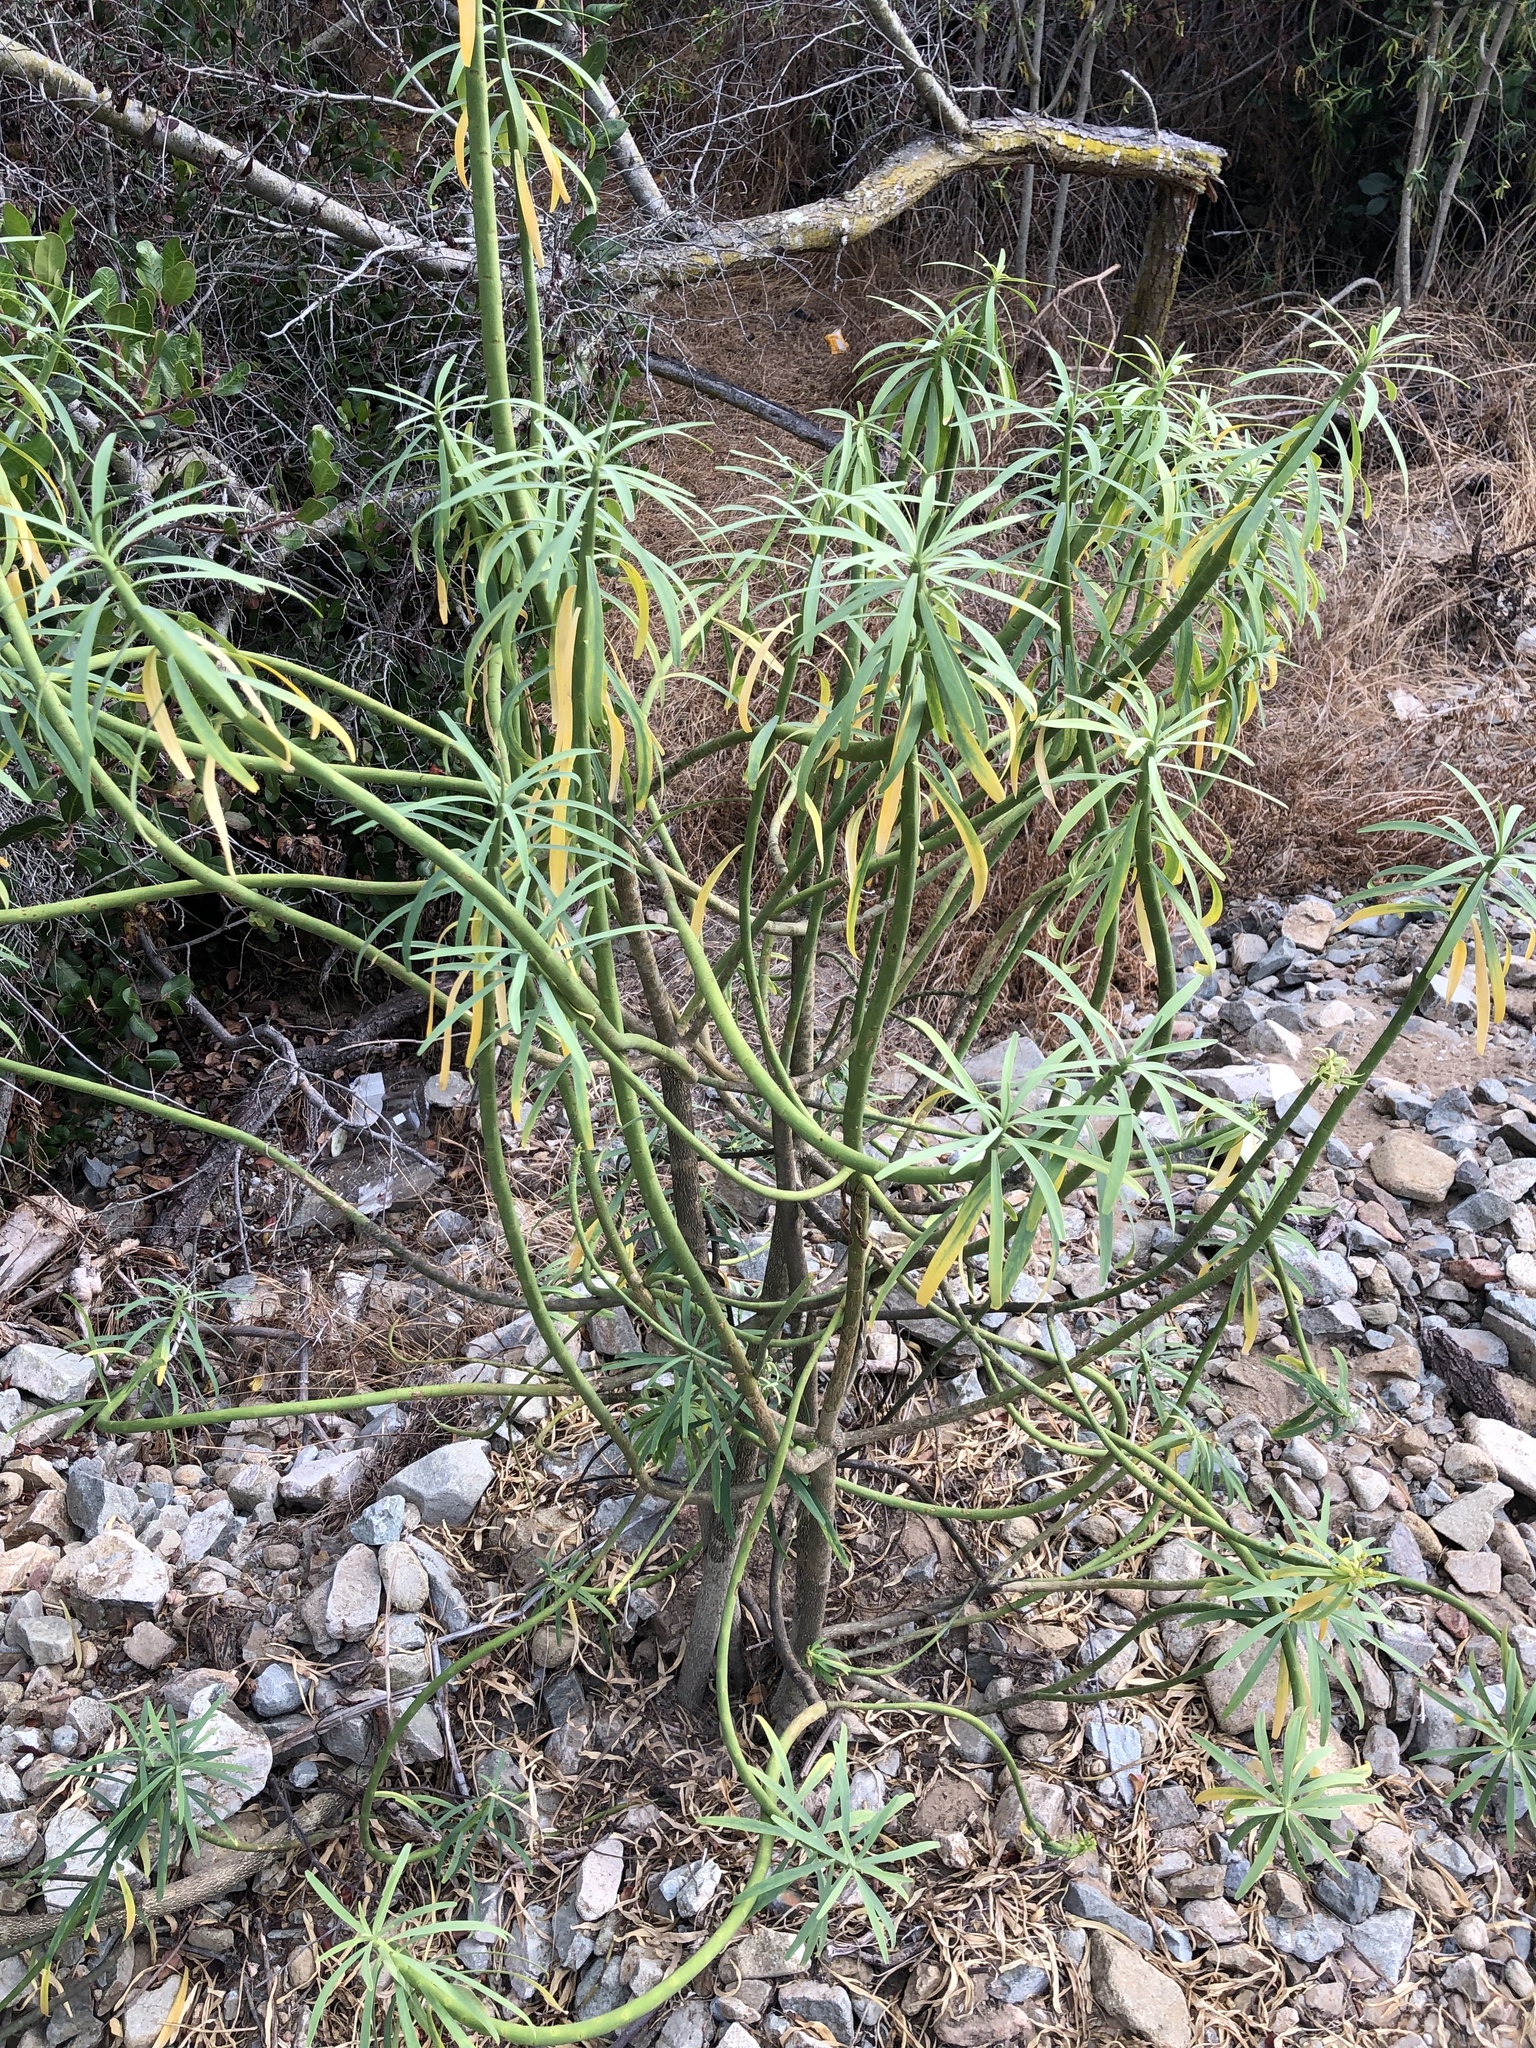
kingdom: Plantae
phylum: Tracheophyta
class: Magnoliopsida
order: Malpighiales
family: Euphorbiaceae
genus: Euphorbia
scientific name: Euphorbia lamarckii
